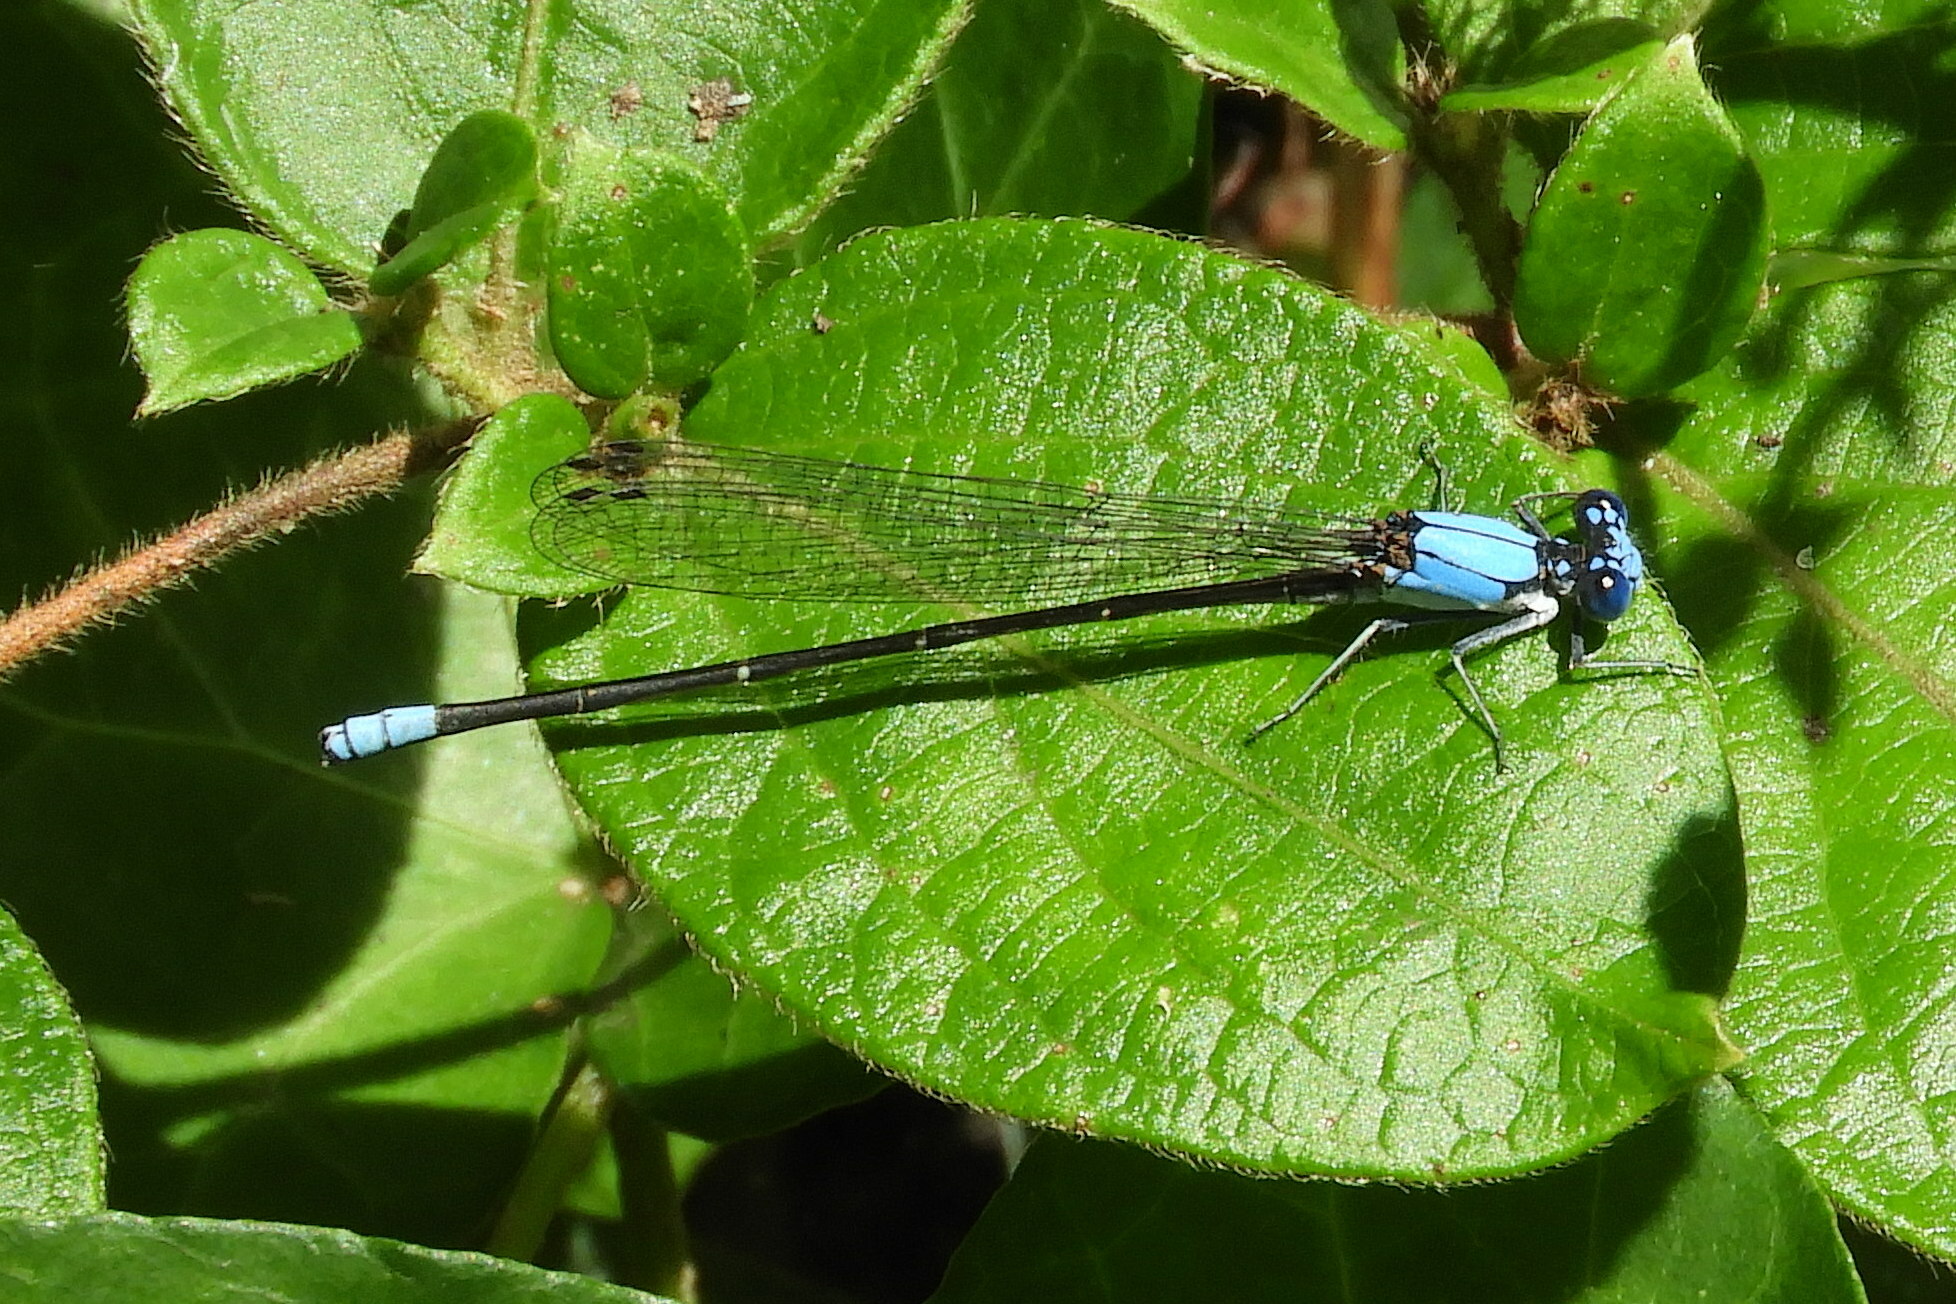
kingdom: Animalia
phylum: Arthropoda
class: Insecta
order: Odonata
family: Coenagrionidae
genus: Argia
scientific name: Argia apicalis
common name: Blue-fronted dancer
